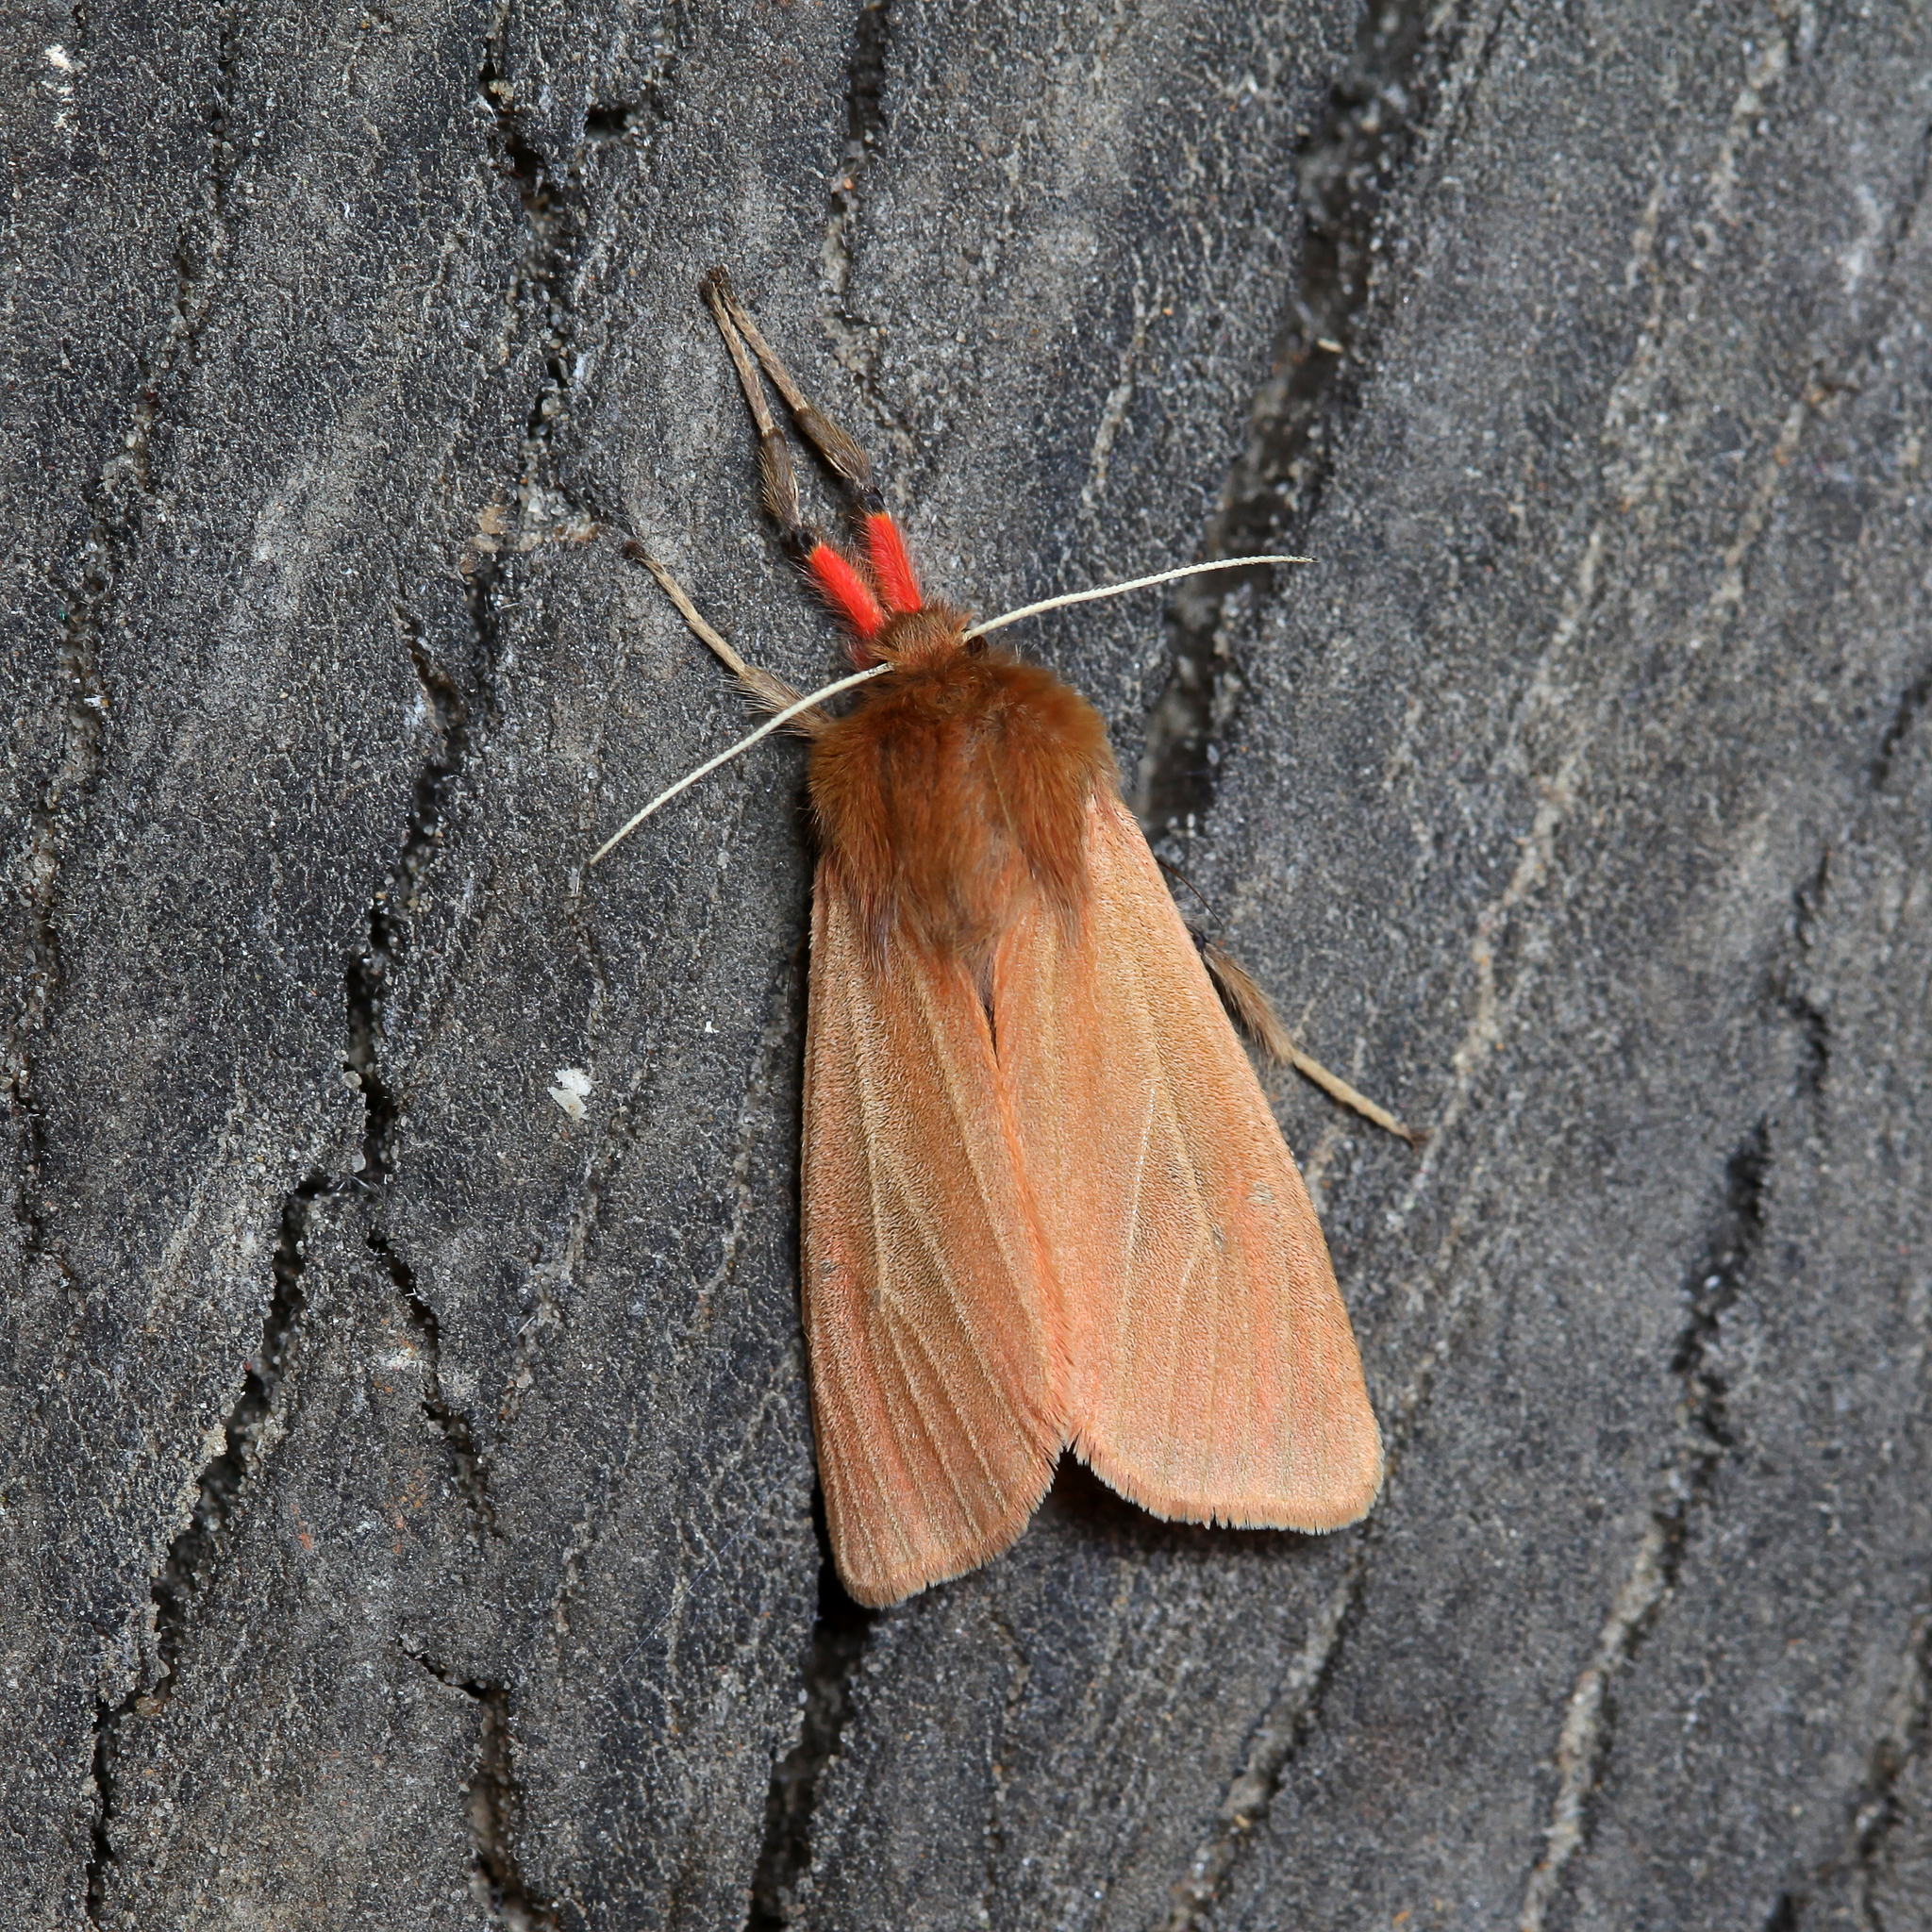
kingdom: Animalia
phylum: Arthropoda
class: Insecta
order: Lepidoptera
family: Erebidae
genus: Phragmatobia
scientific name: Phragmatobia fuliginosa
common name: Ruby tiger
